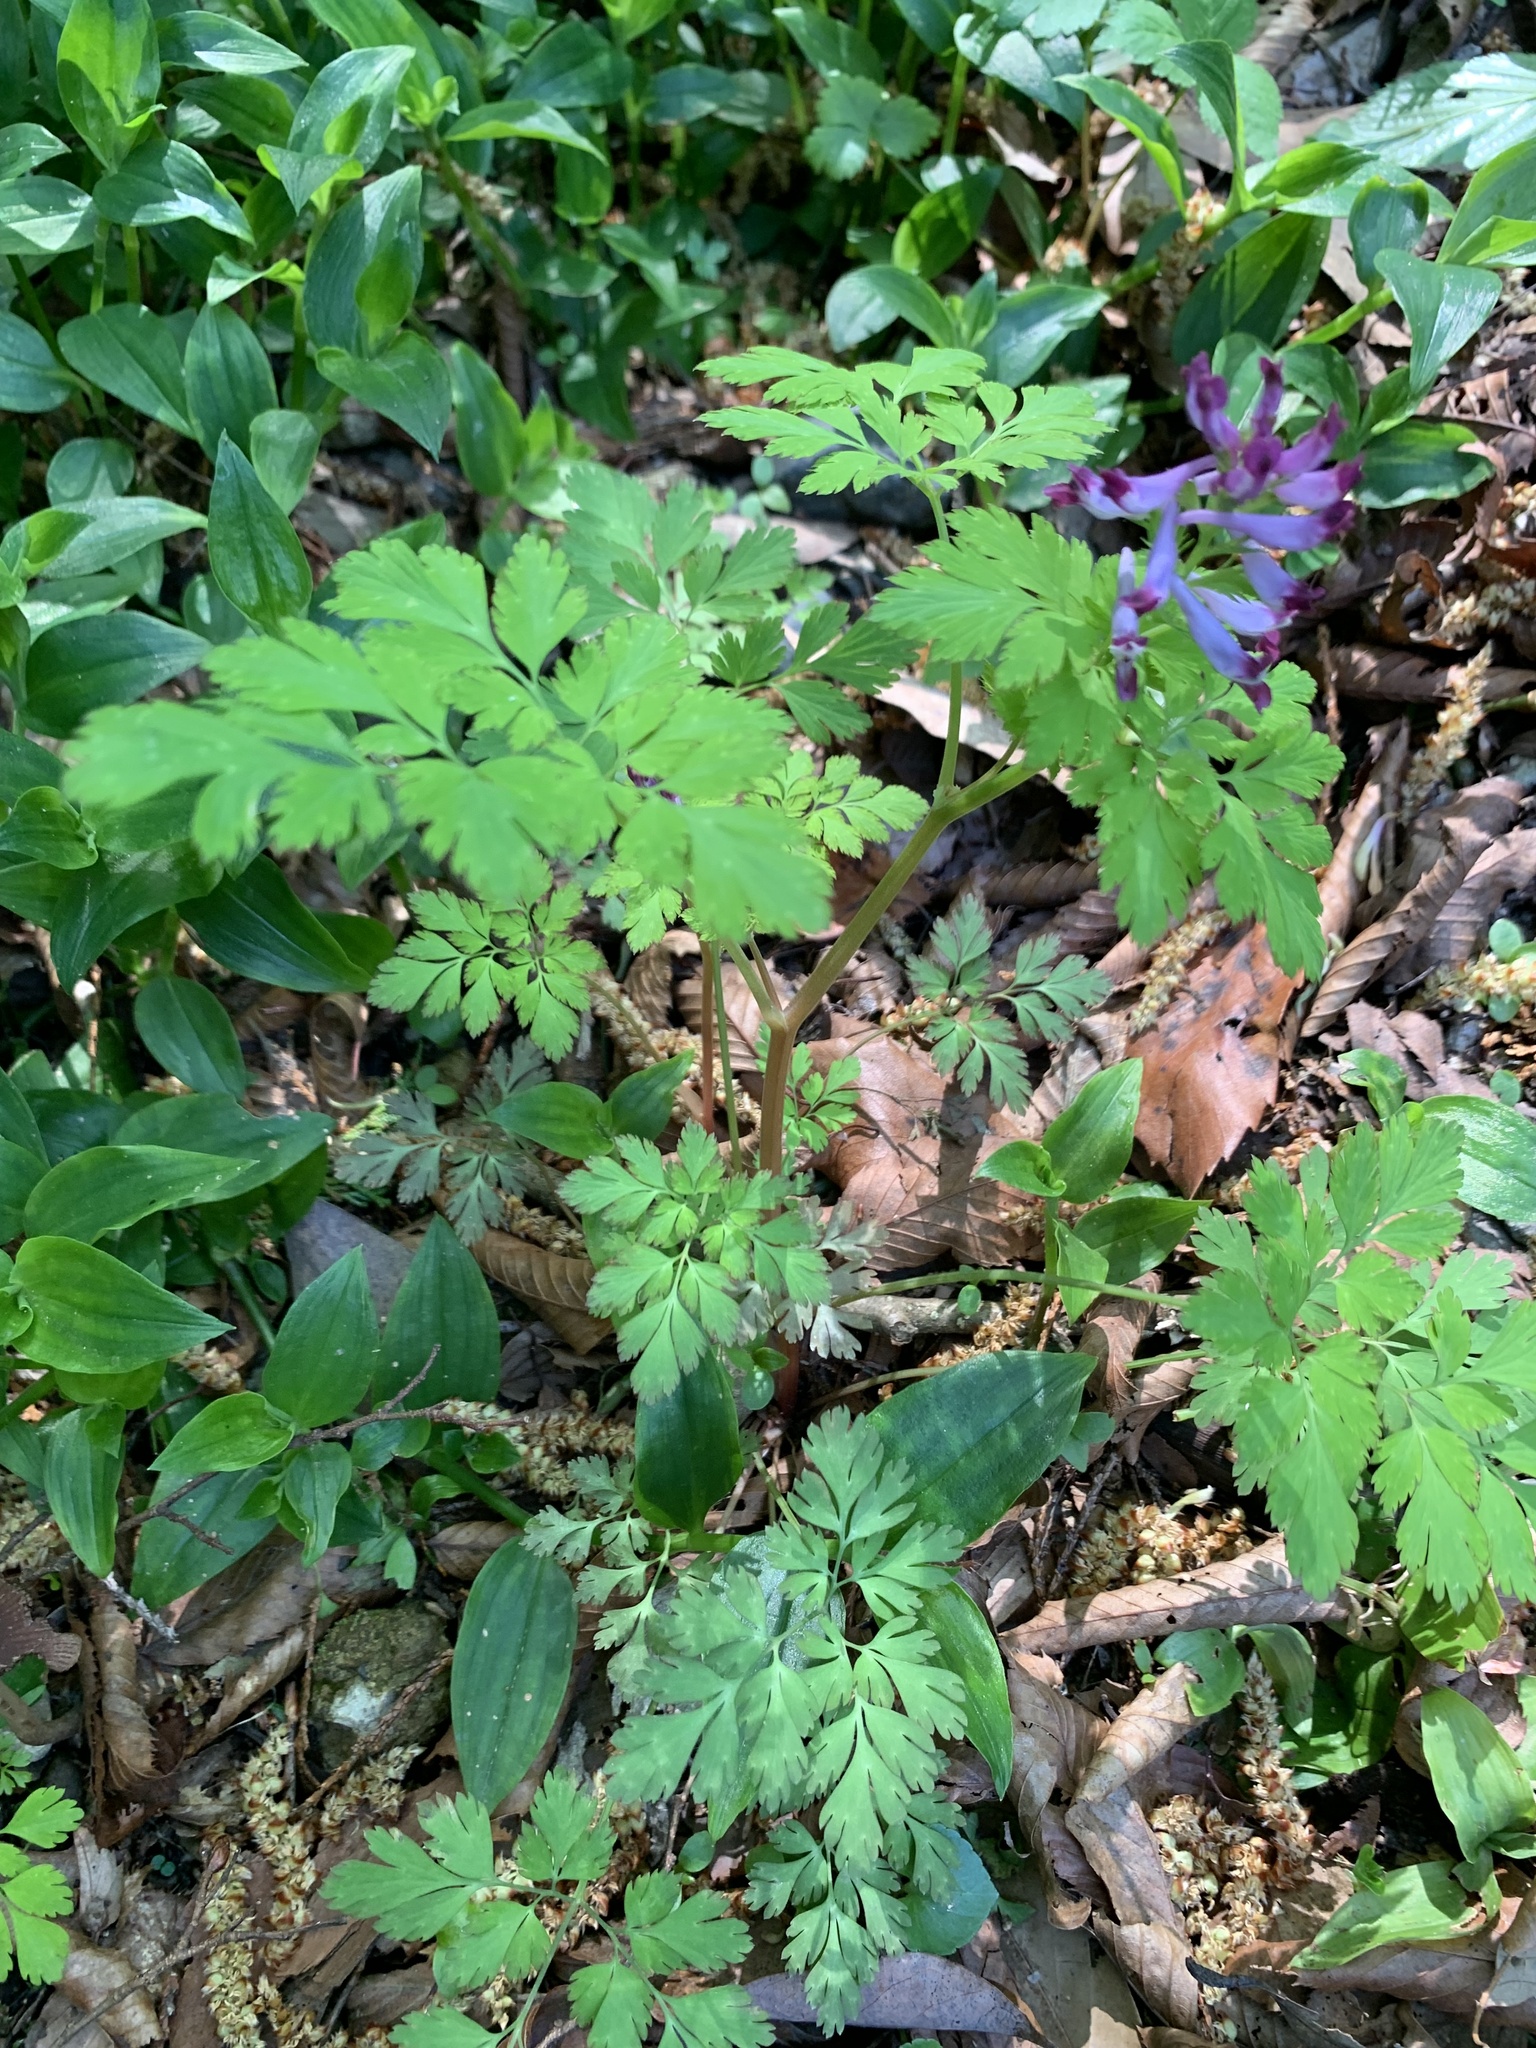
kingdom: Plantae
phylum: Tracheophyta
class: Magnoliopsida
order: Ranunculales
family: Papaveraceae
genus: Corydalis
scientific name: Corydalis incisa
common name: Incised fumewort
